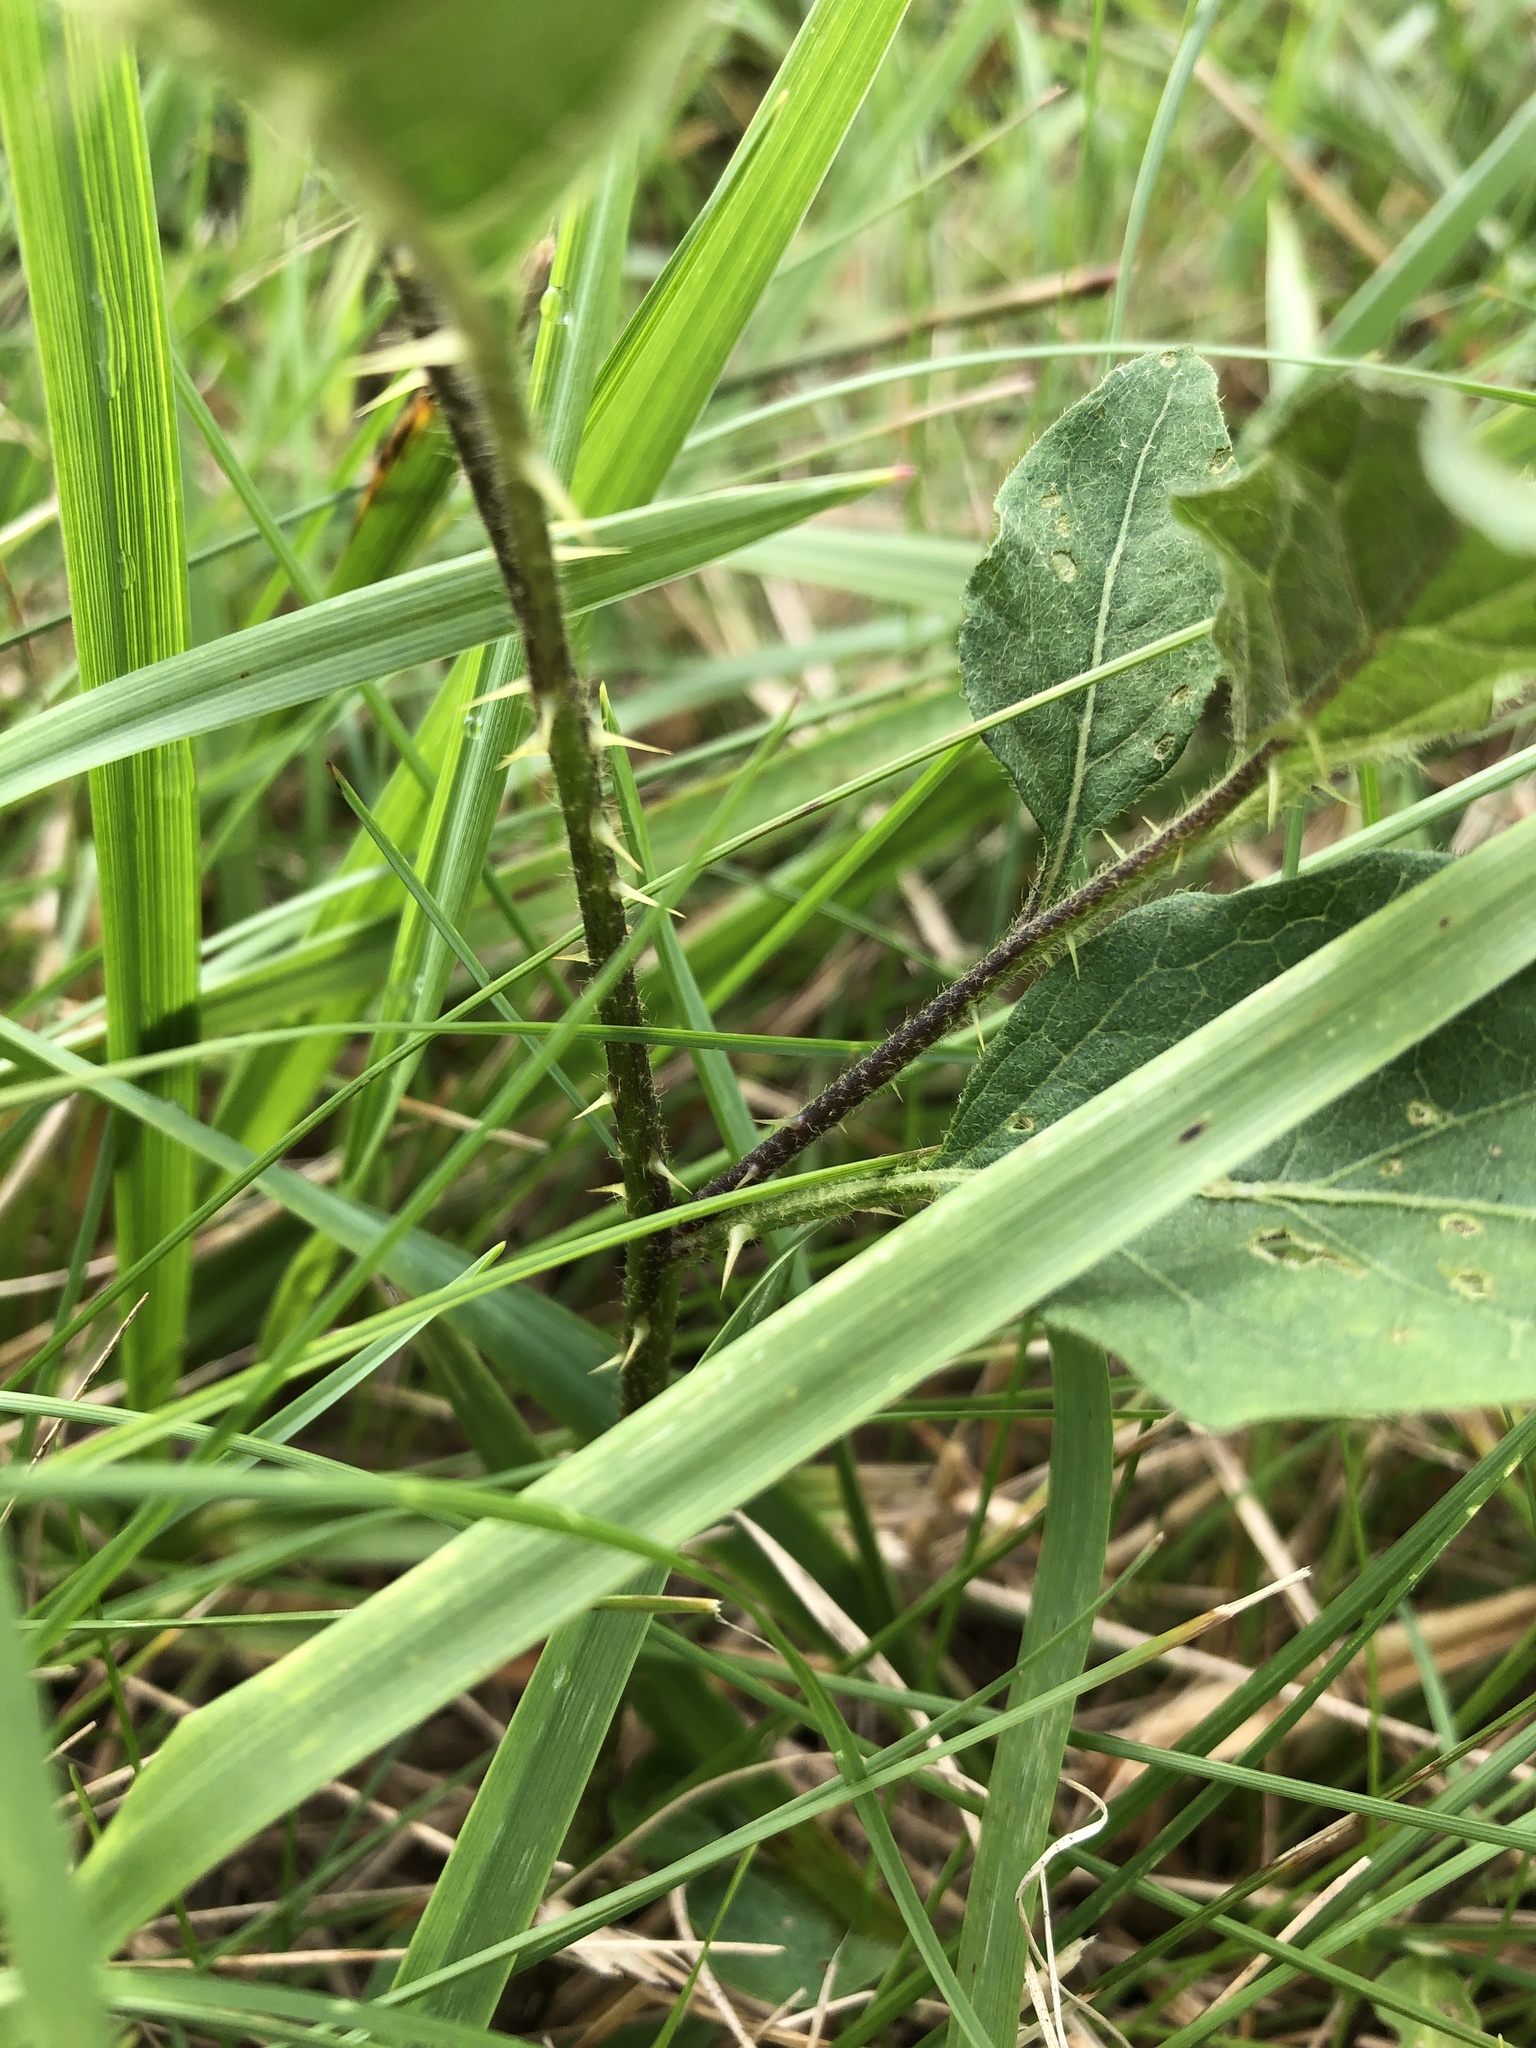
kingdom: Plantae
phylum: Tracheophyta
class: Magnoliopsida
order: Solanales
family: Solanaceae
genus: Solanum
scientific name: Solanum carolinense
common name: Horse-nettle
